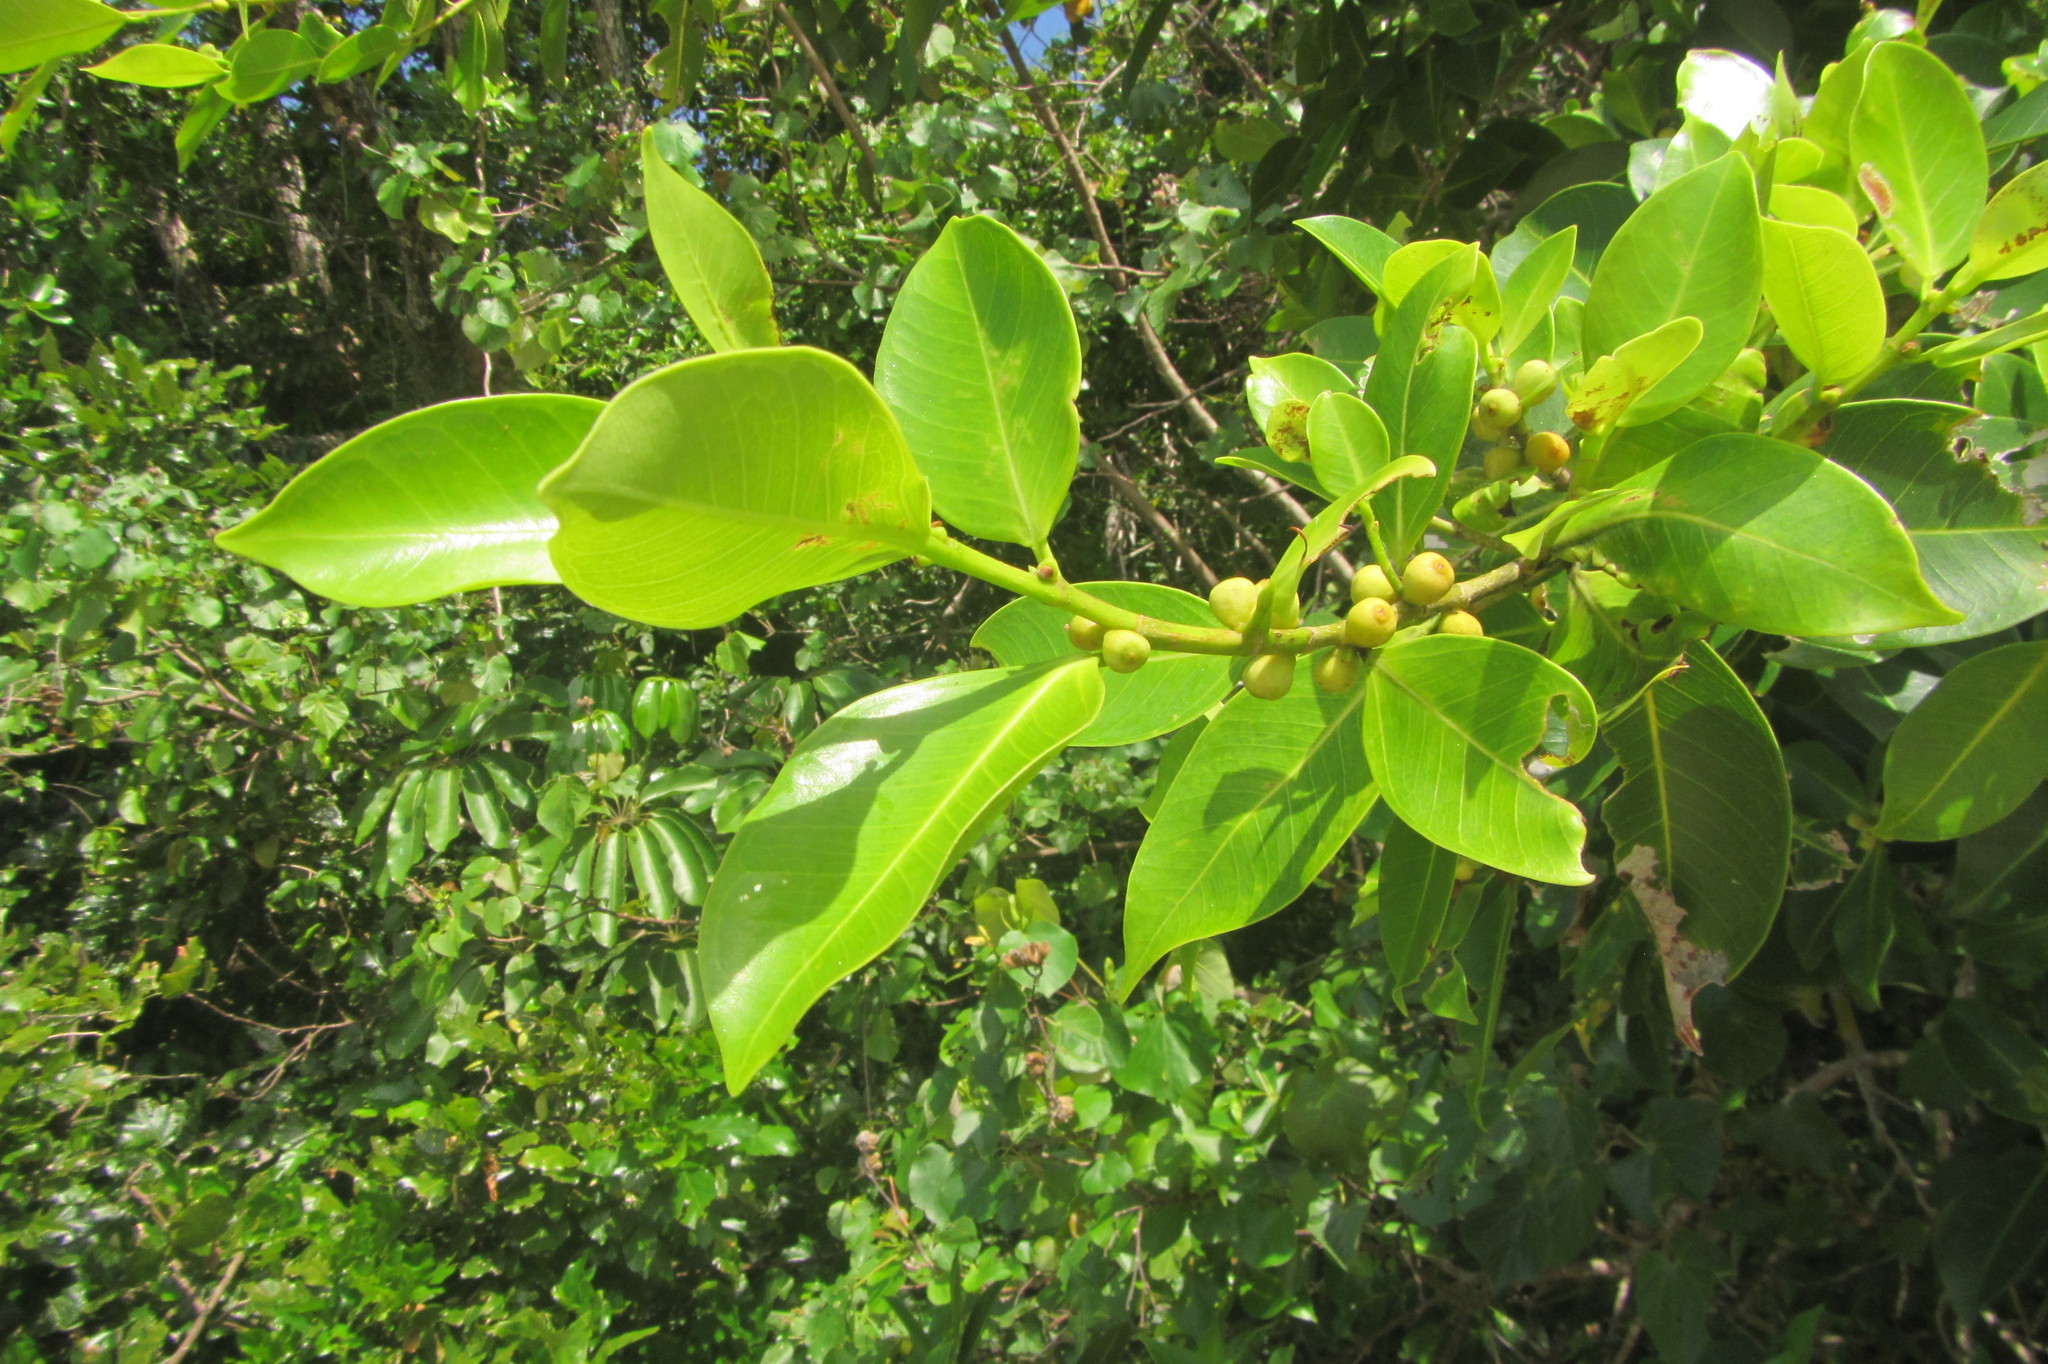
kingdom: Plantae
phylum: Tracheophyta
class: Magnoliopsida
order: Rosales
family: Moraceae
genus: Ficus
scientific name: Ficus microcarpa
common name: Chinese banyan
